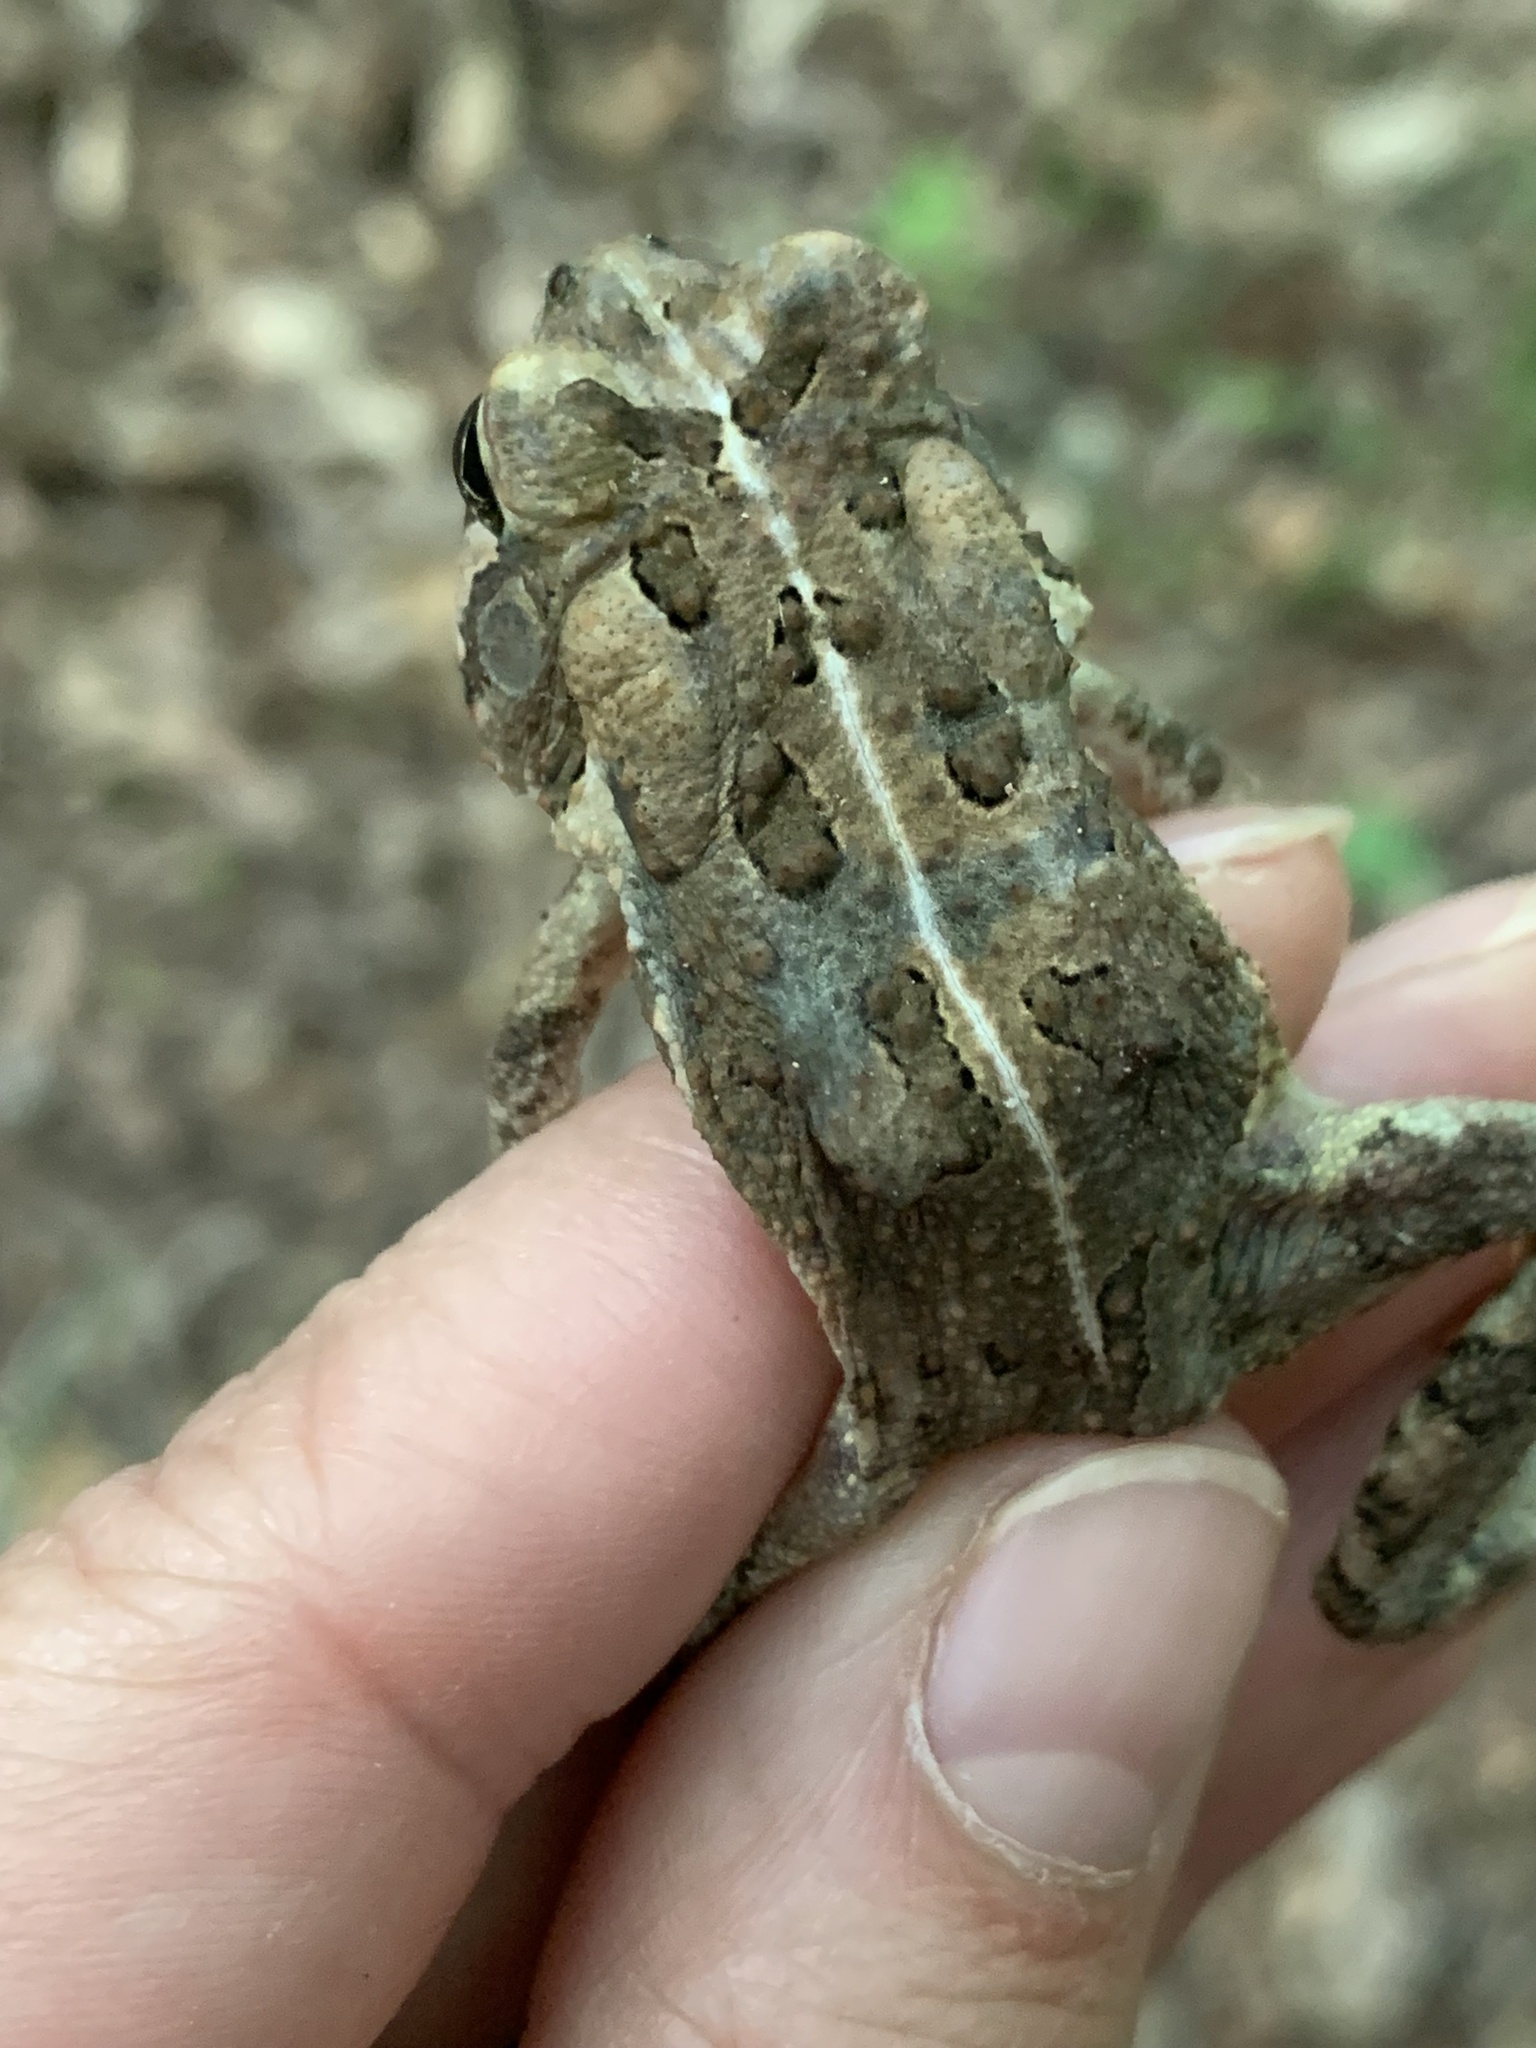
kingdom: Animalia
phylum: Chordata
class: Amphibia
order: Anura
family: Bufonidae
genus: Anaxyrus
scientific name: Anaxyrus fowleri
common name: Fowler's toad
